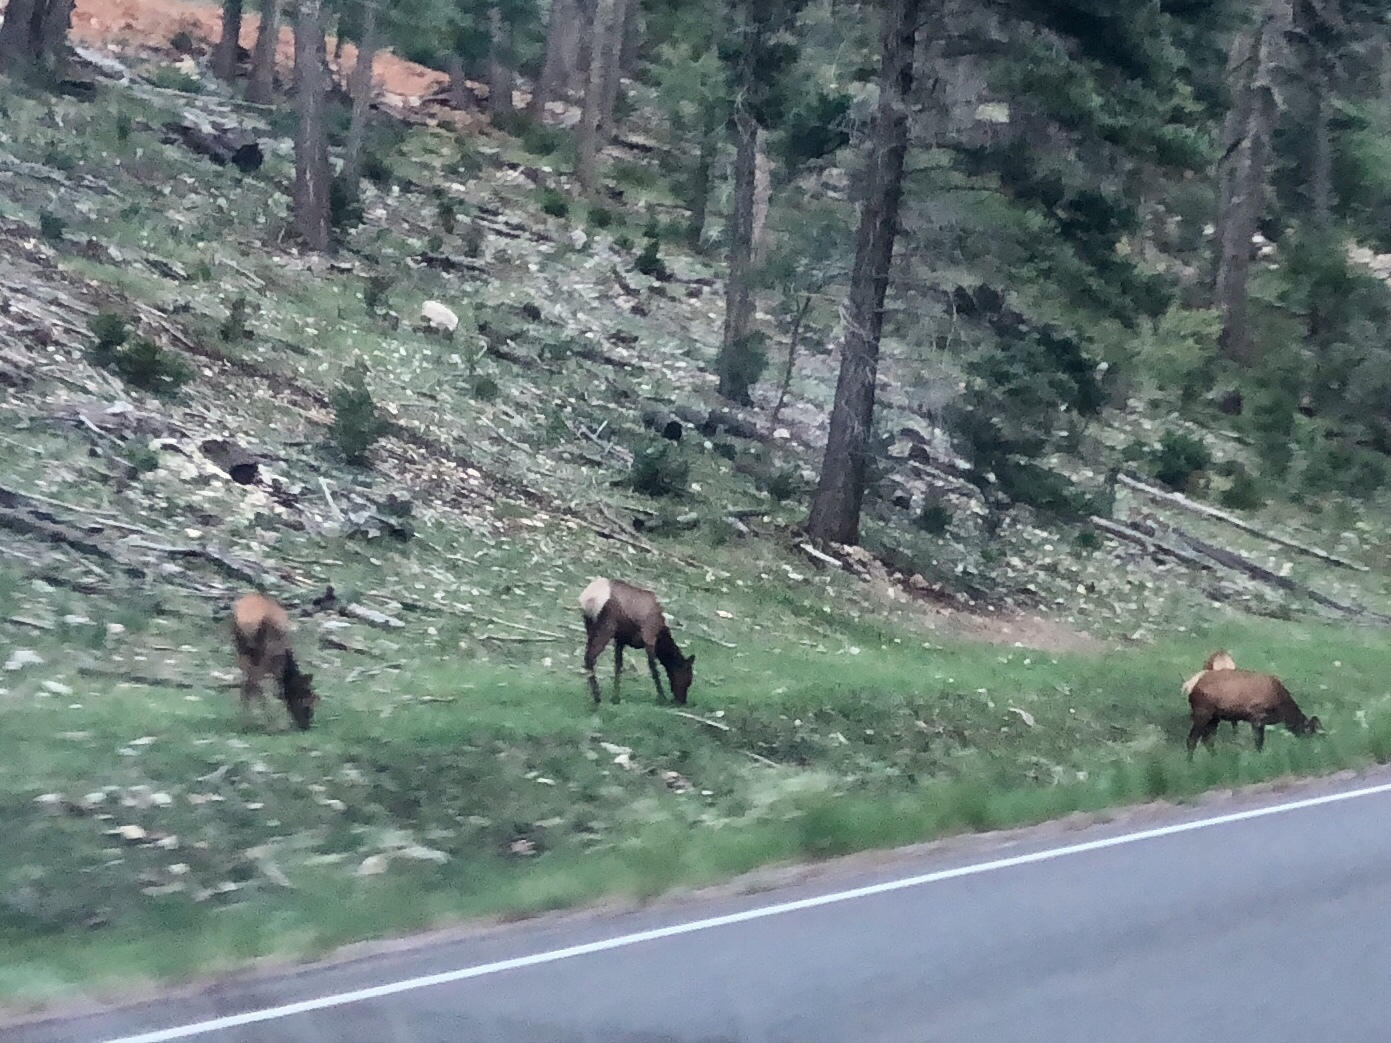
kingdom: Animalia
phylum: Chordata
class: Mammalia
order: Artiodactyla
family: Cervidae
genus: Cervus
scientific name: Cervus elaphus
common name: Red deer
